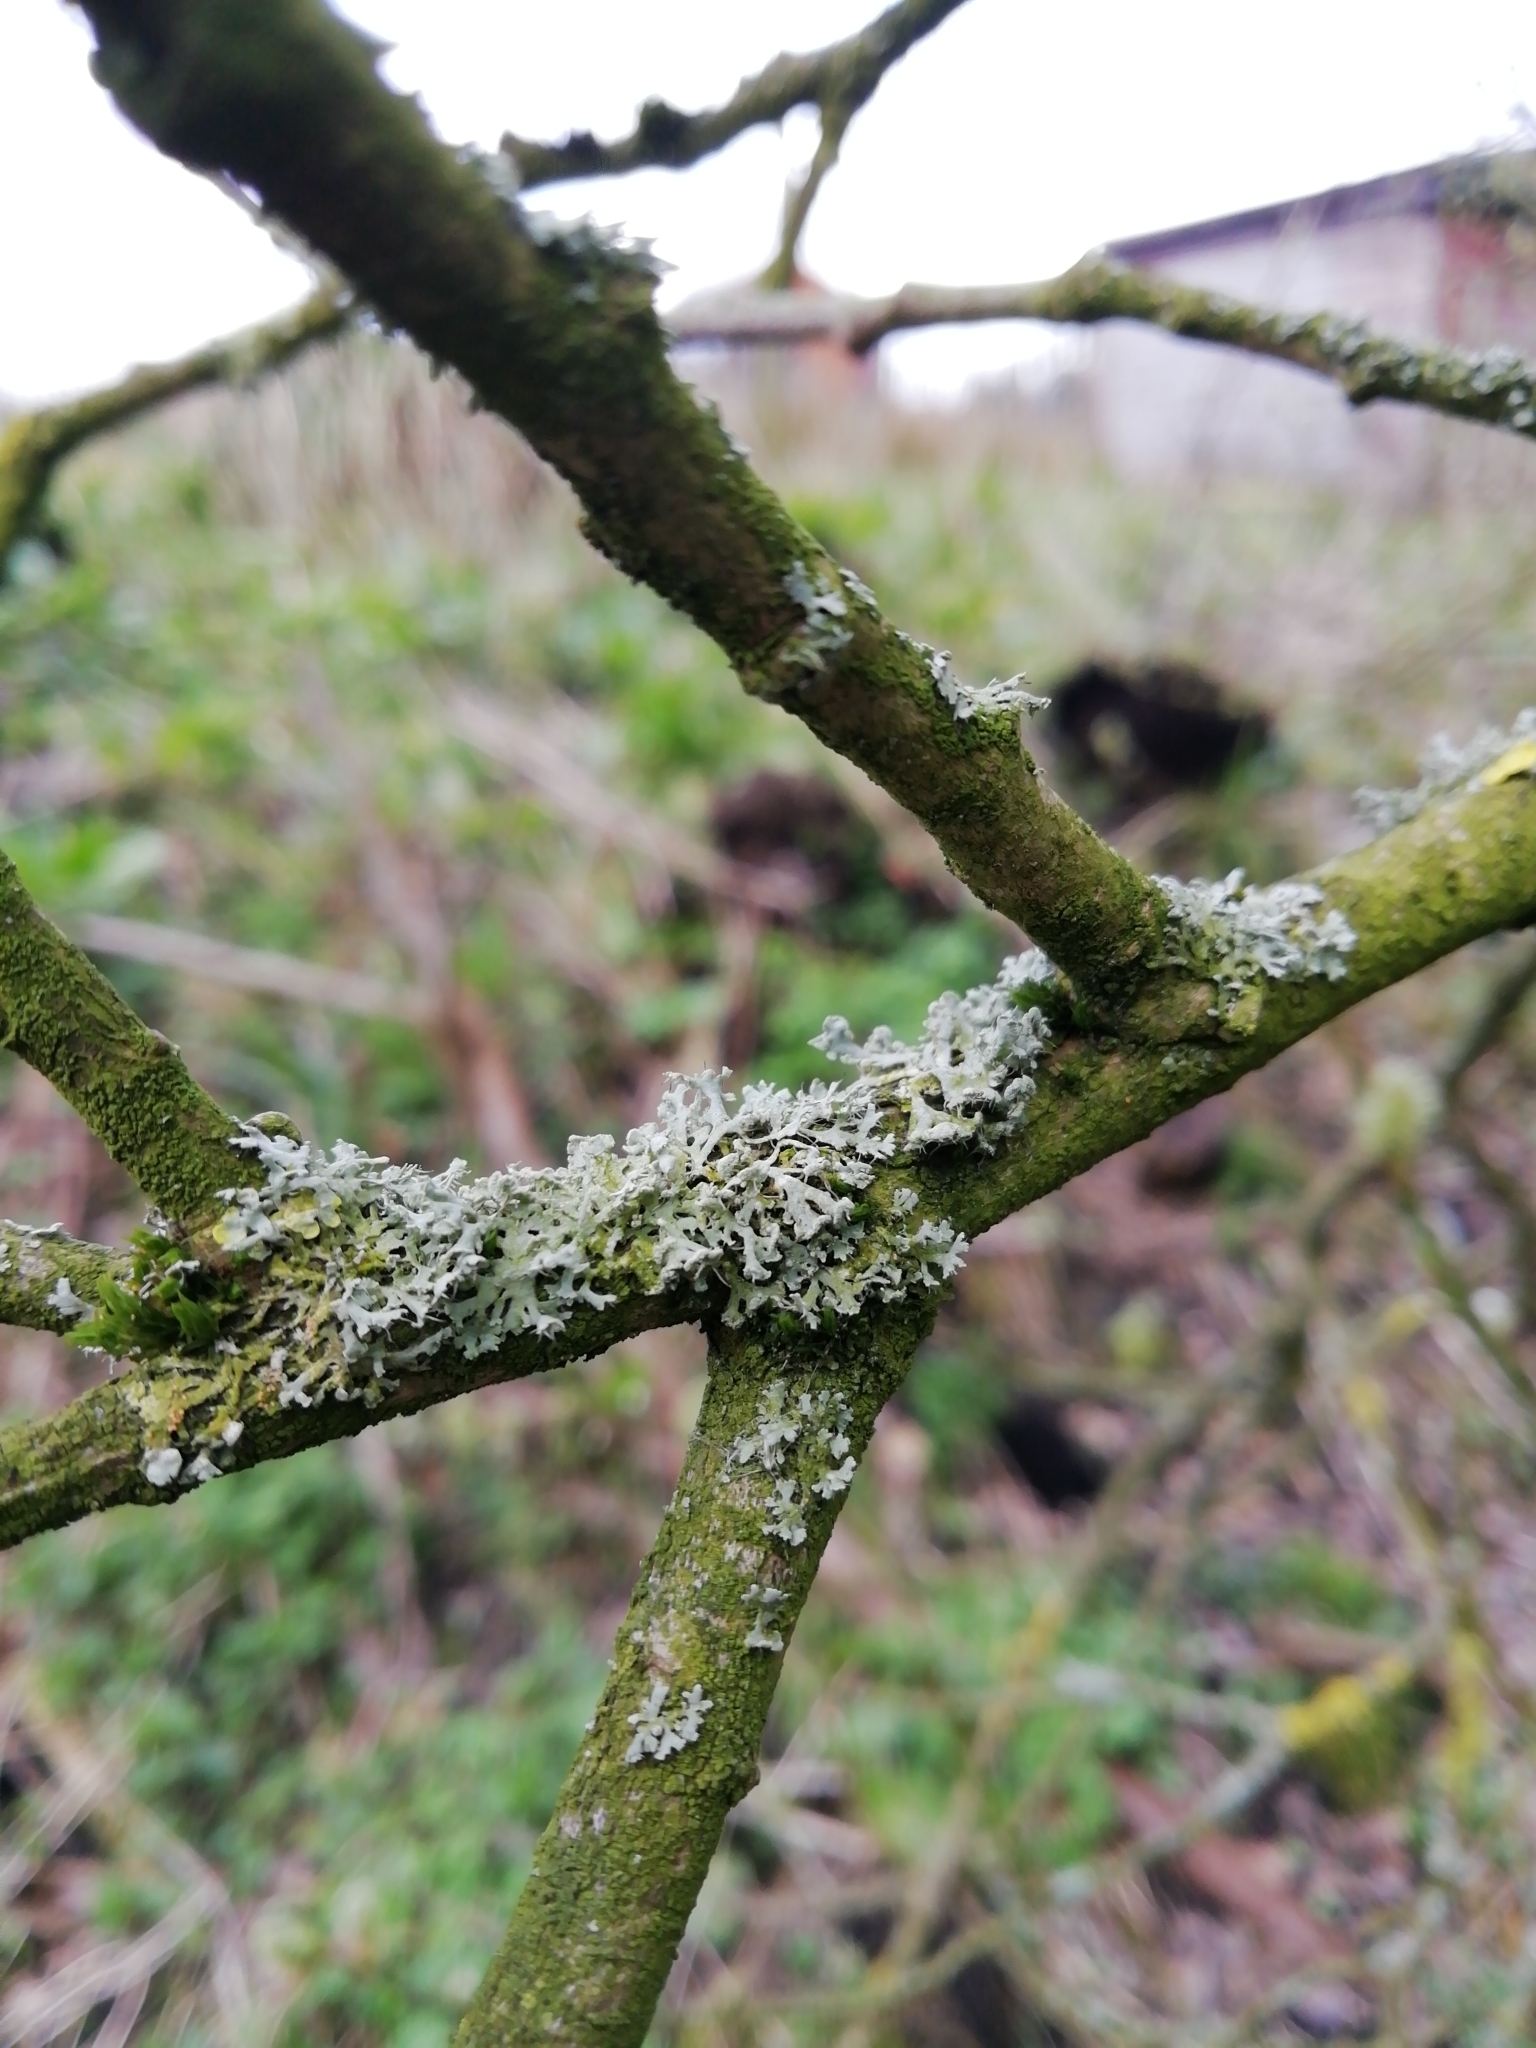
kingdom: Fungi
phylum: Ascomycota
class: Lecanoromycetes
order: Caliciales
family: Physciaceae
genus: Physcia
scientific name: Physcia tenella
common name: Fringed rosette lichen
